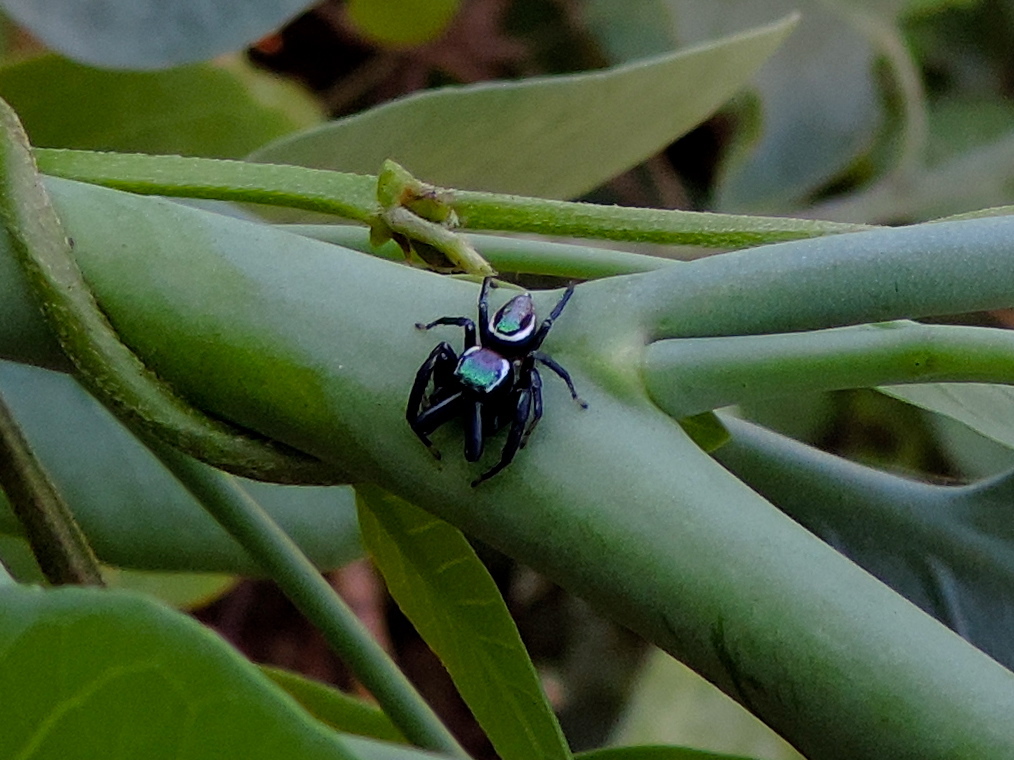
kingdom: Animalia
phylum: Arthropoda
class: Arachnida
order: Araneae
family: Salticidae
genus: Messua
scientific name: Messua limbata
